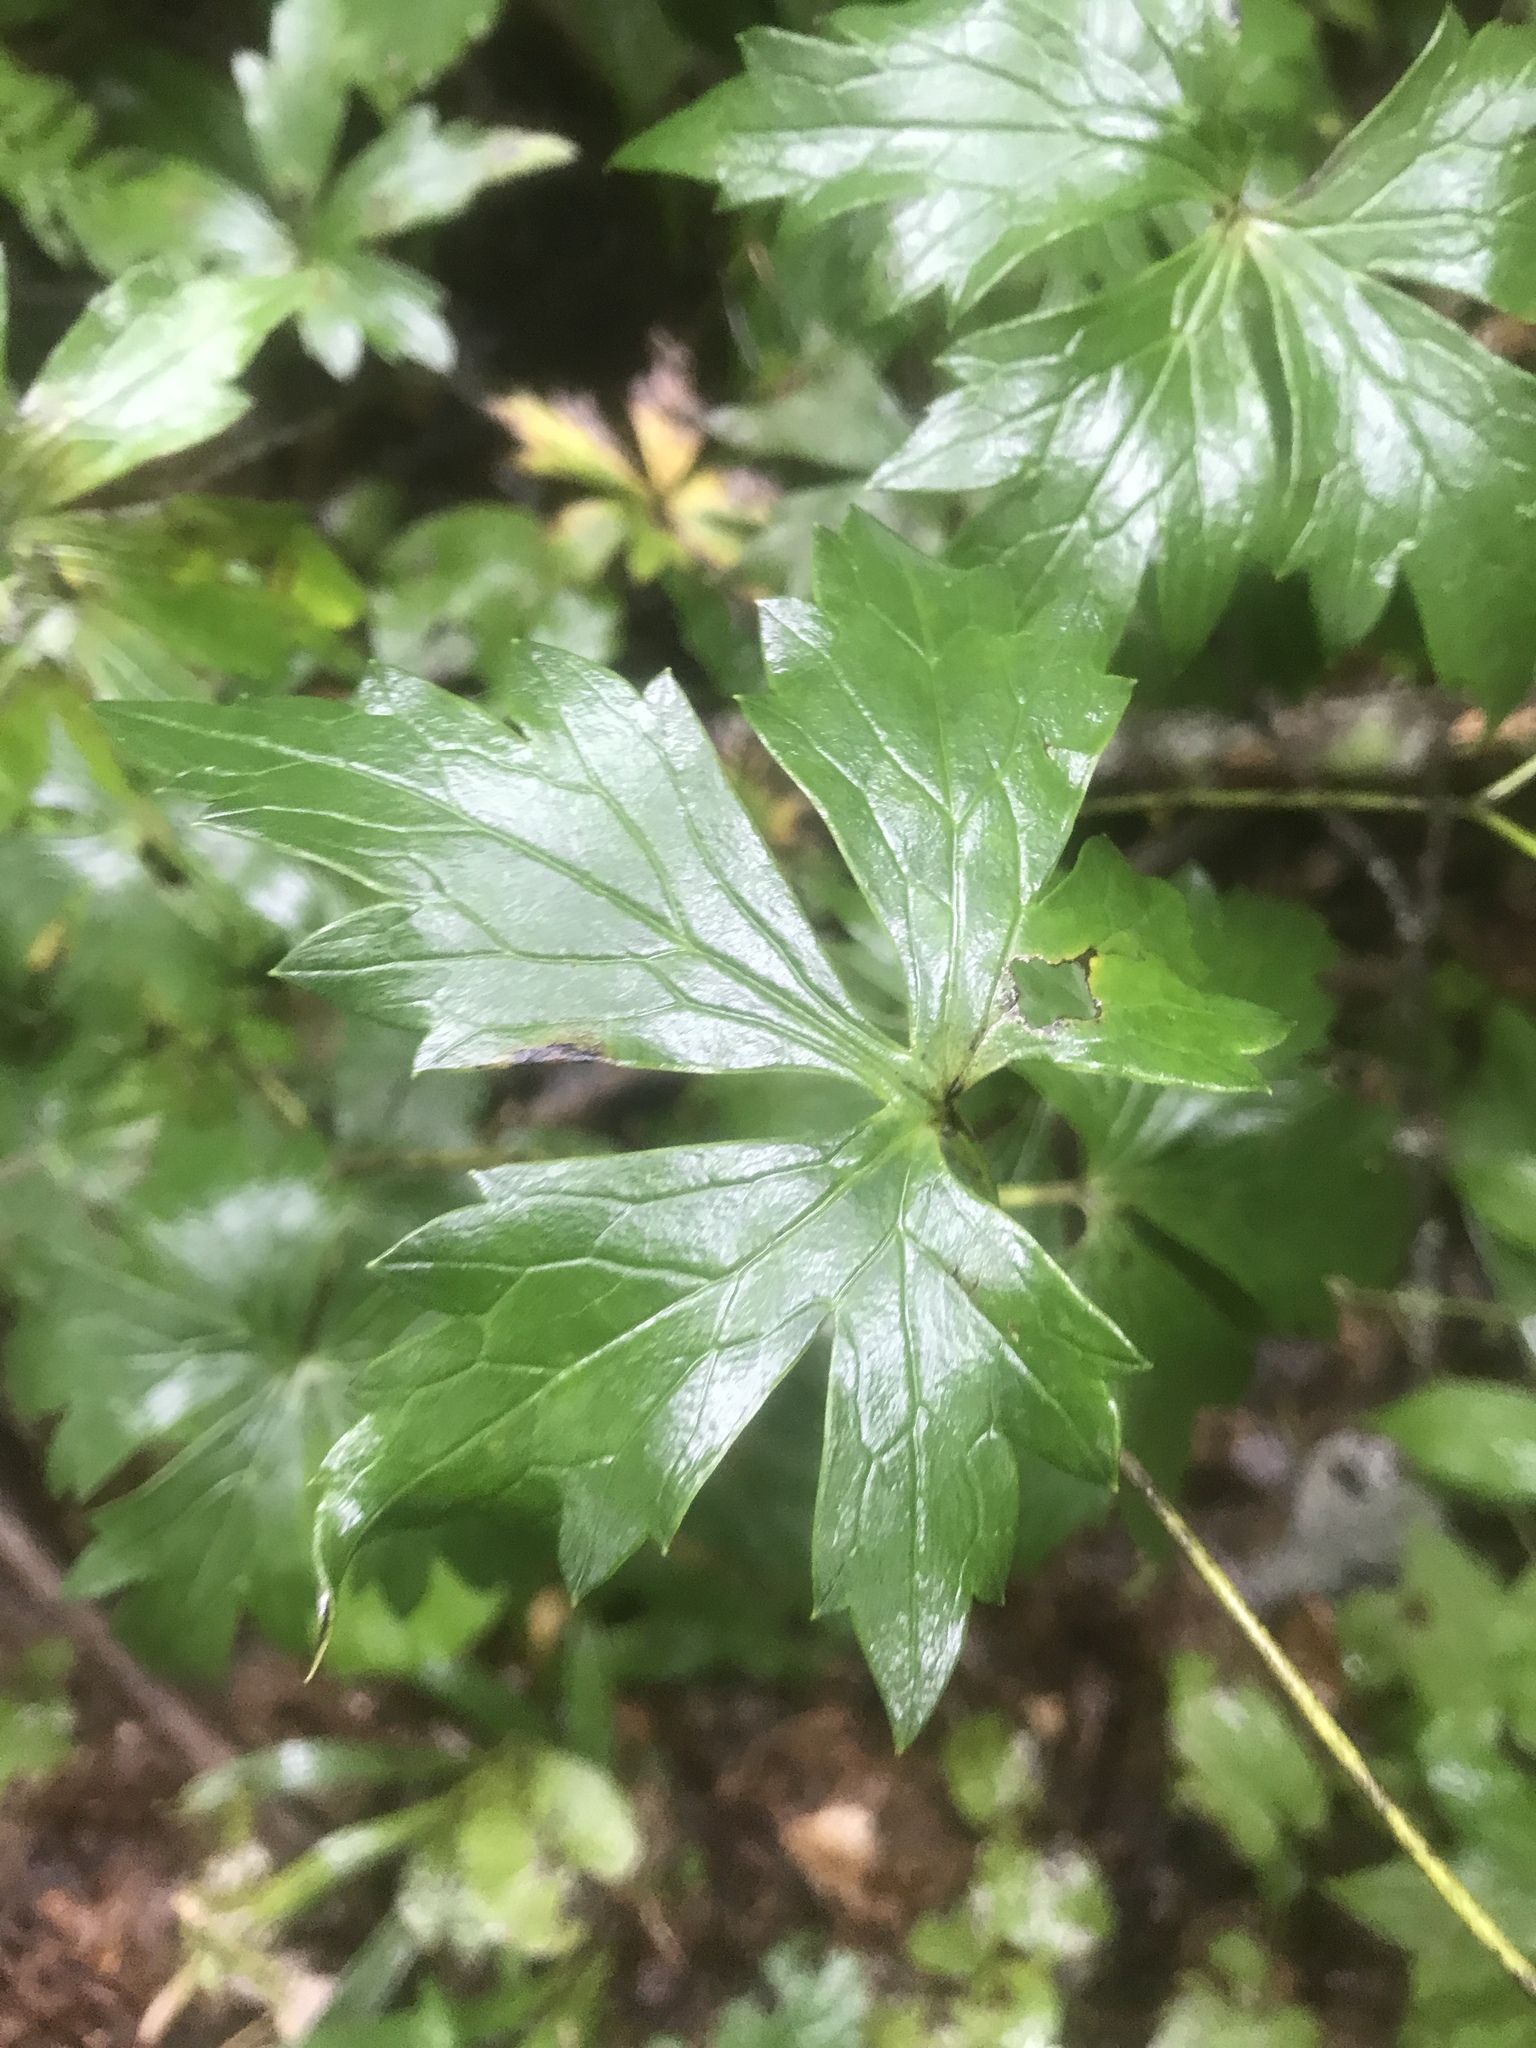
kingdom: Plantae
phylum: Tracheophyta
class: Magnoliopsida
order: Ranunculales
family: Ranunculaceae
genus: Aconitum
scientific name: Aconitum uncinatum
